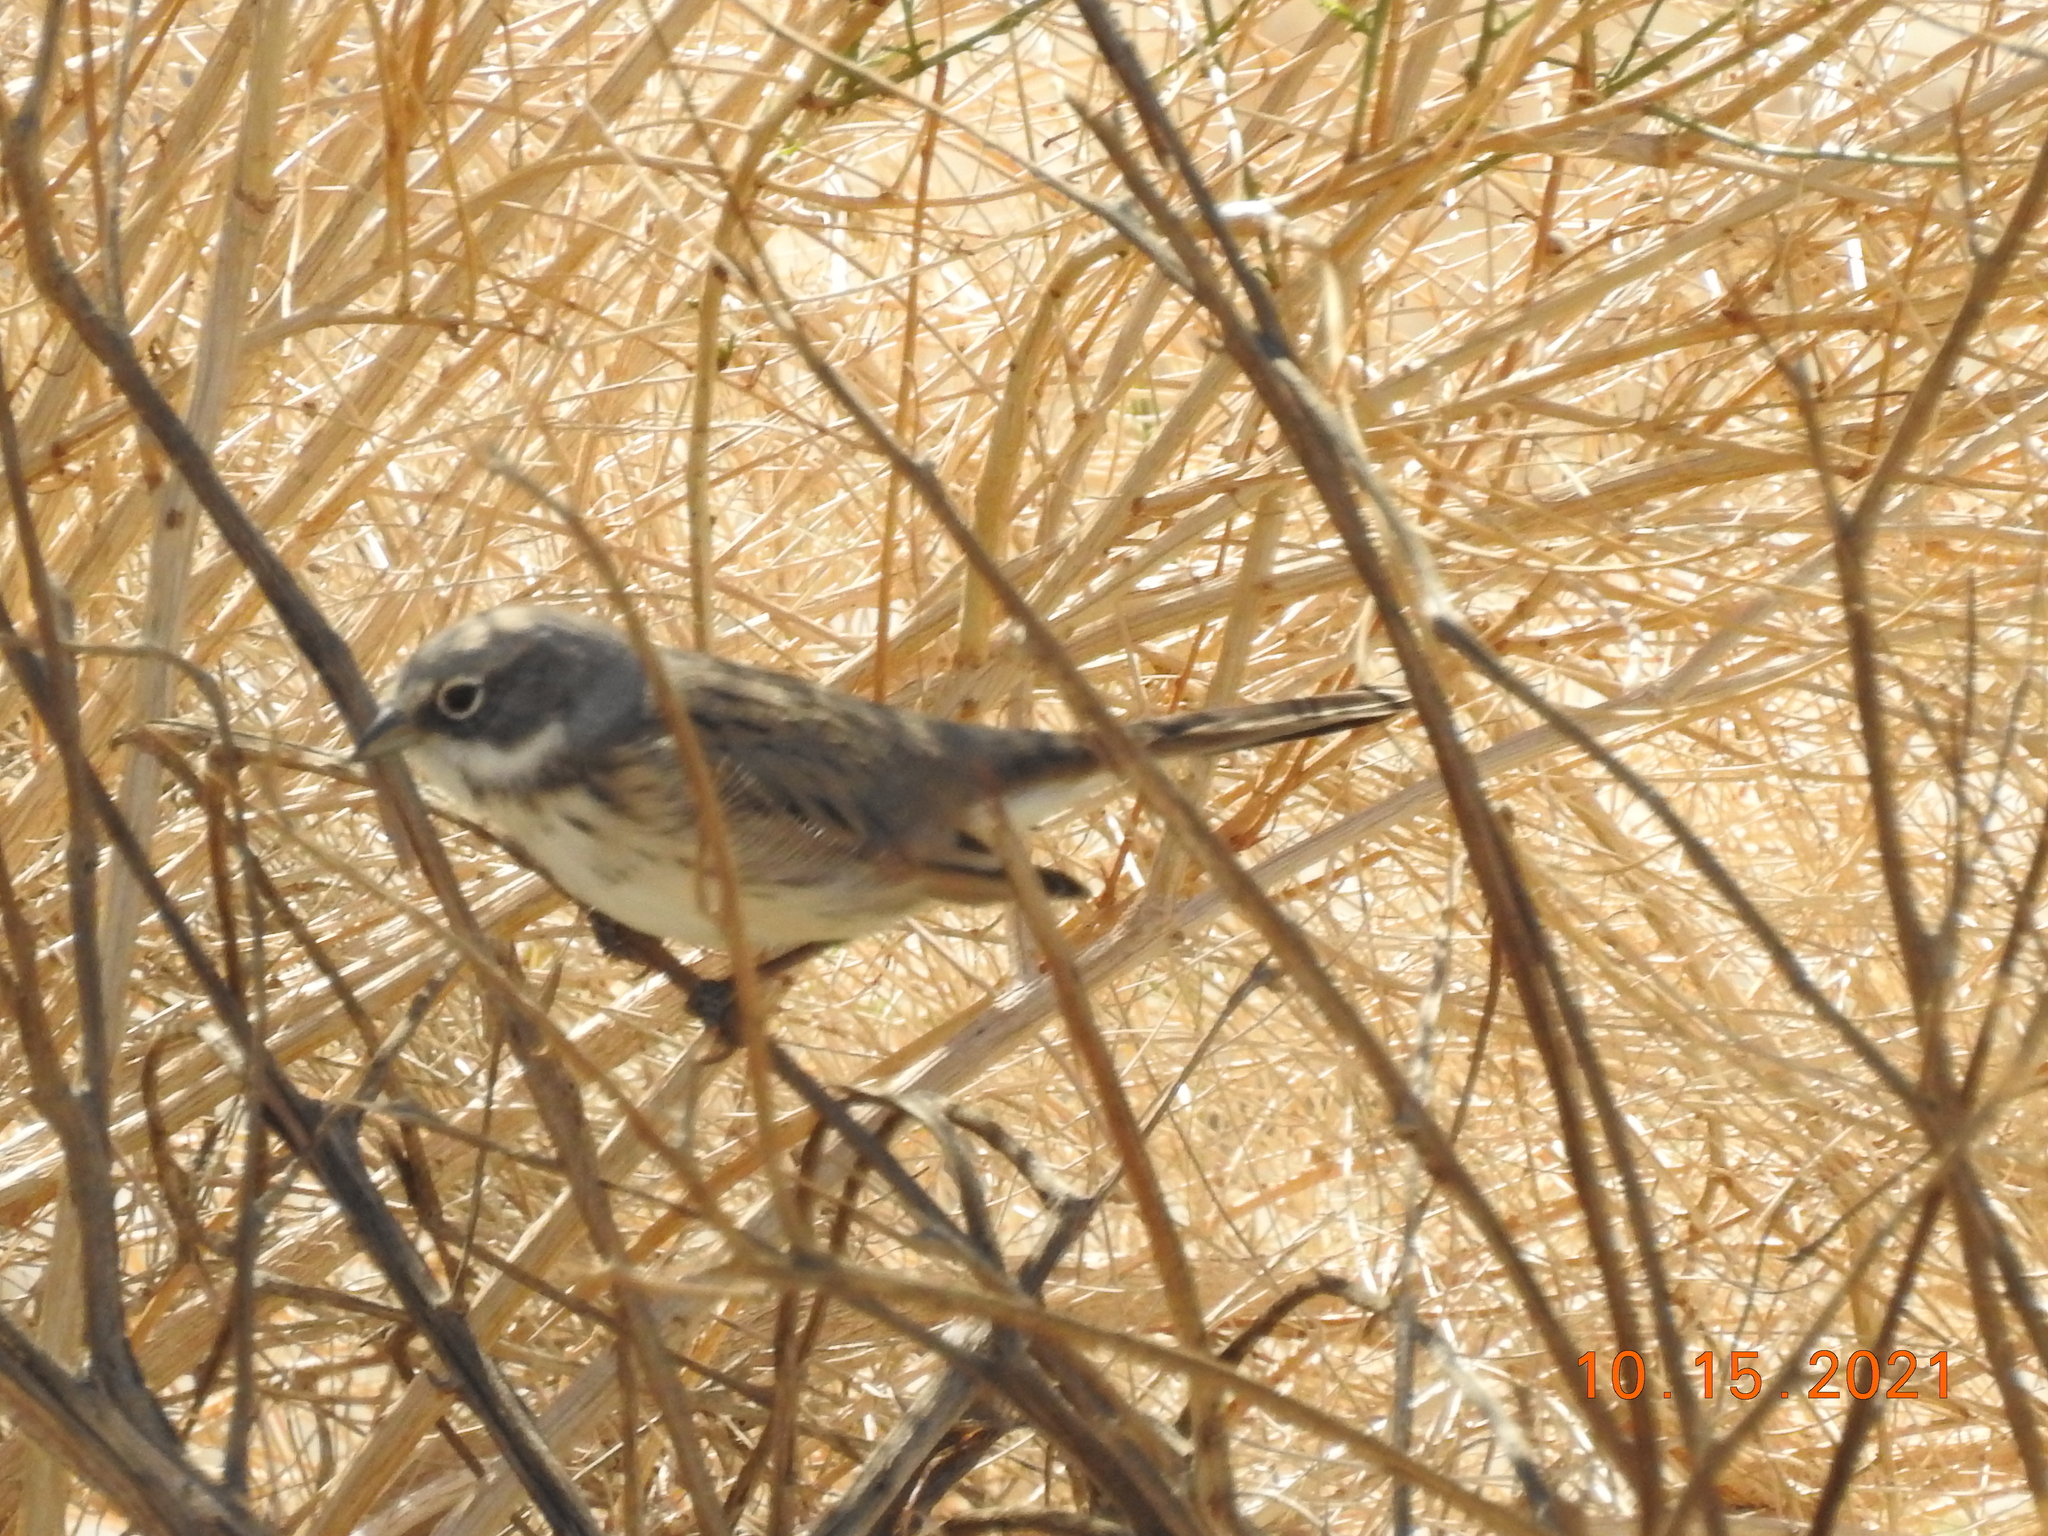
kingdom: Animalia
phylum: Chordata
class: Aves
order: Passeriformes
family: Passerellidae
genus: Artemisiospiza
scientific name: Artemisiospiza nevadensis
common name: Sagebrush sparrow
